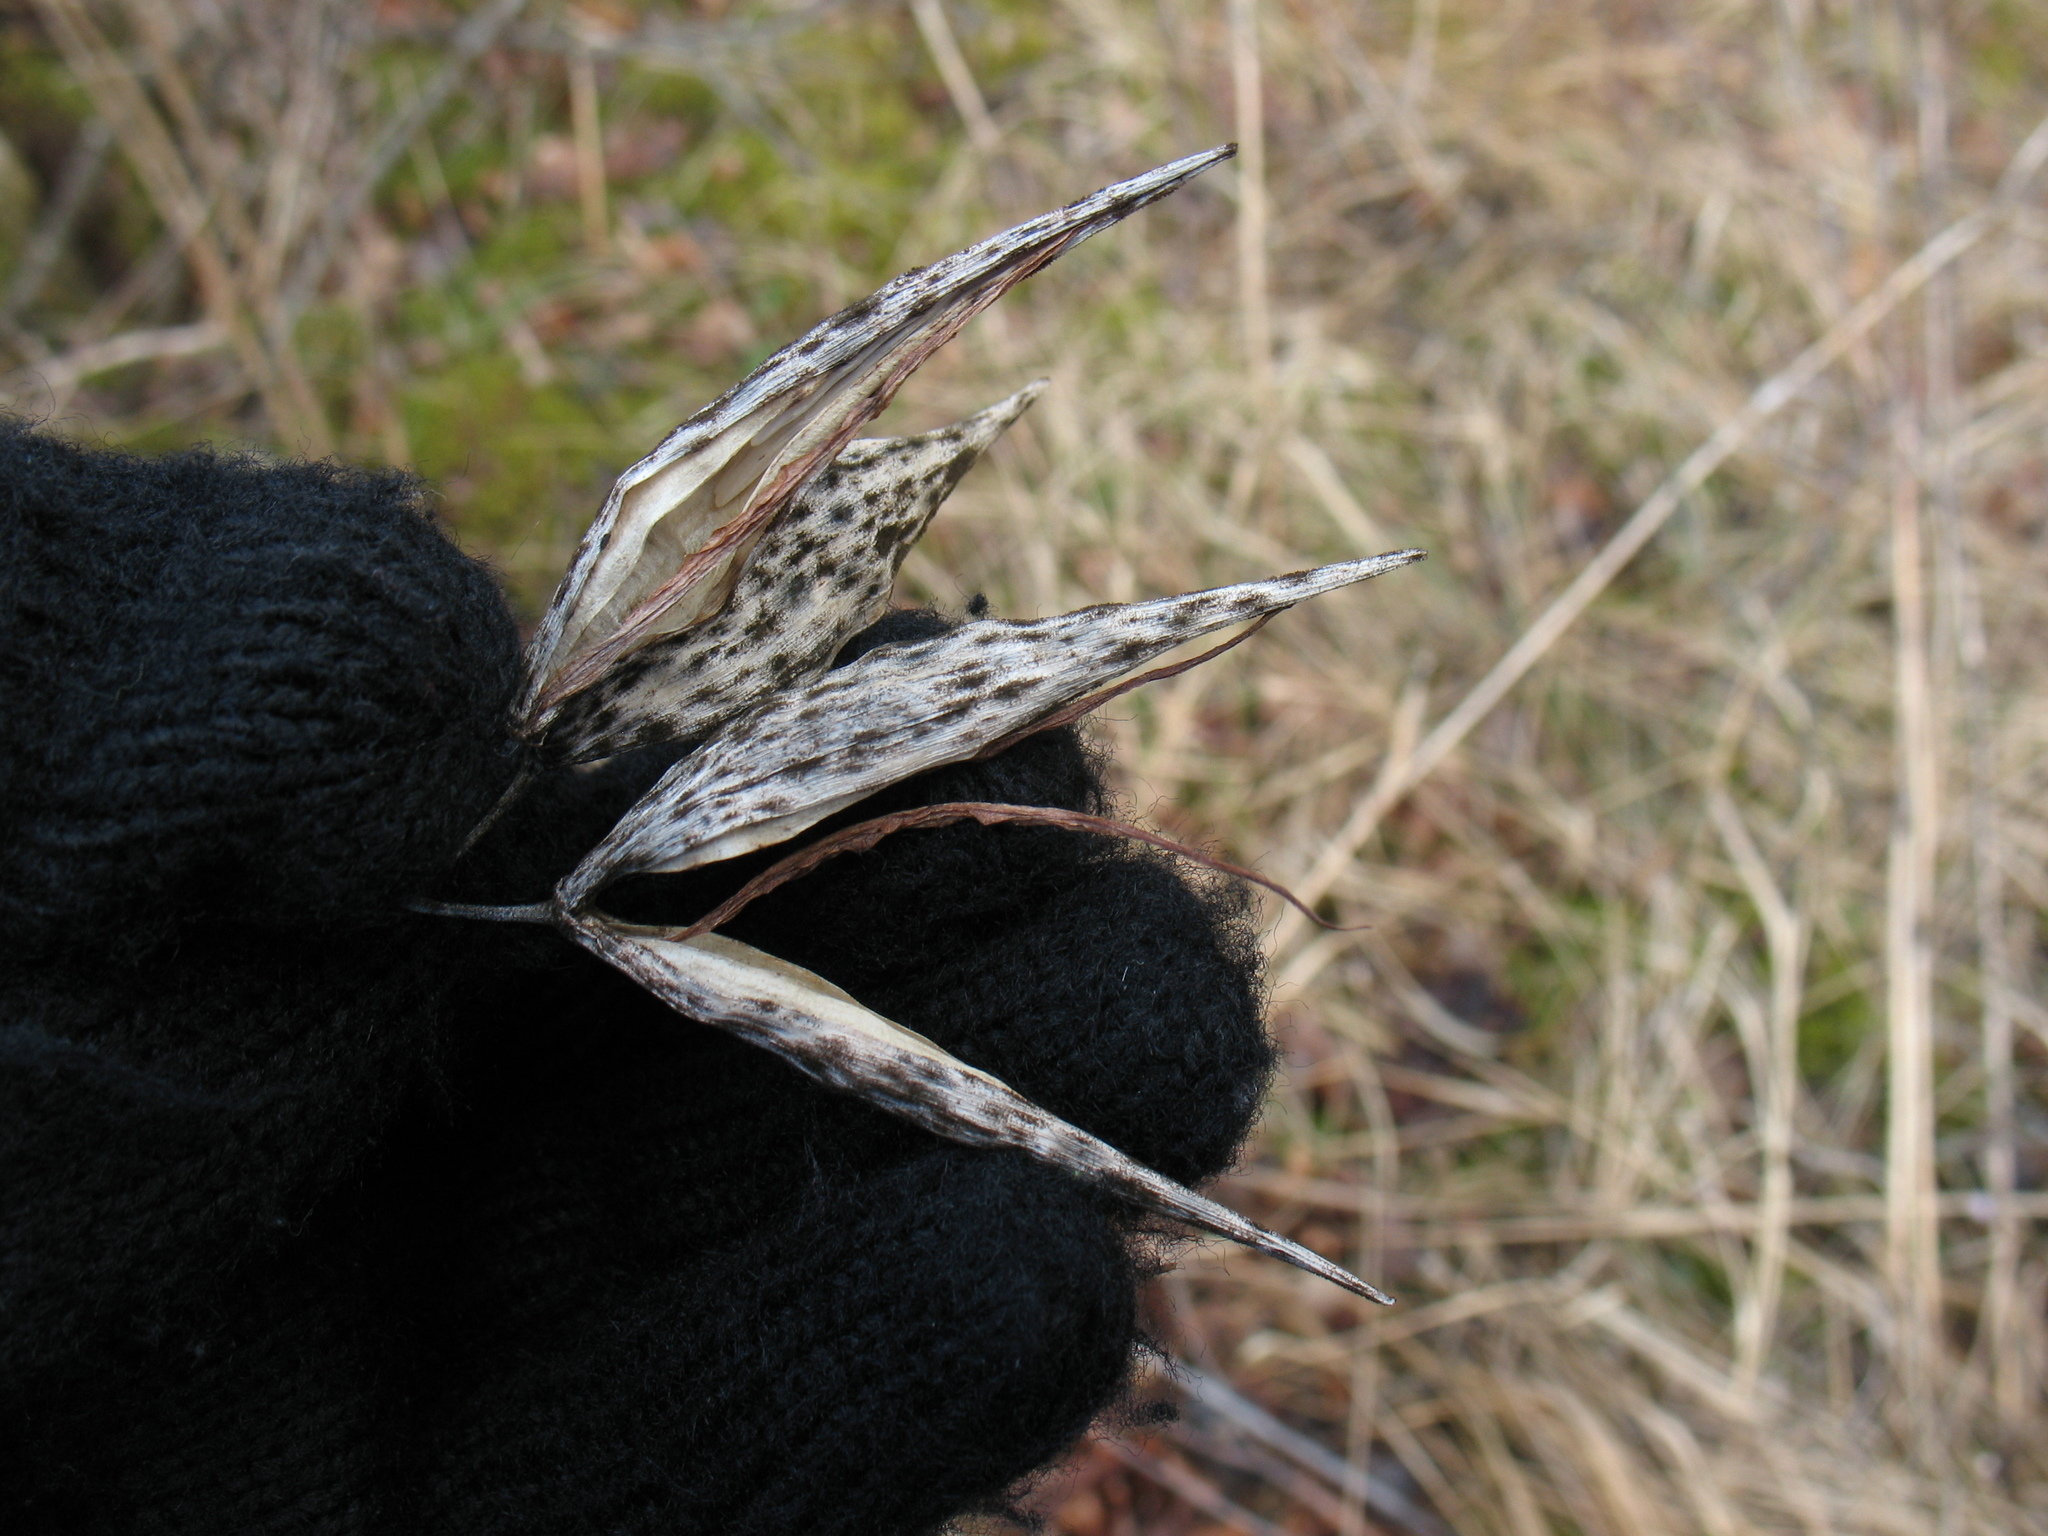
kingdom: Plantae
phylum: Tracheophyta
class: Magnoliopsida
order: Gentianales
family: Apocynaceae
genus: Vincetoxicum
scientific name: Vincetoxicum hirundinaria
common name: White swallowwort
